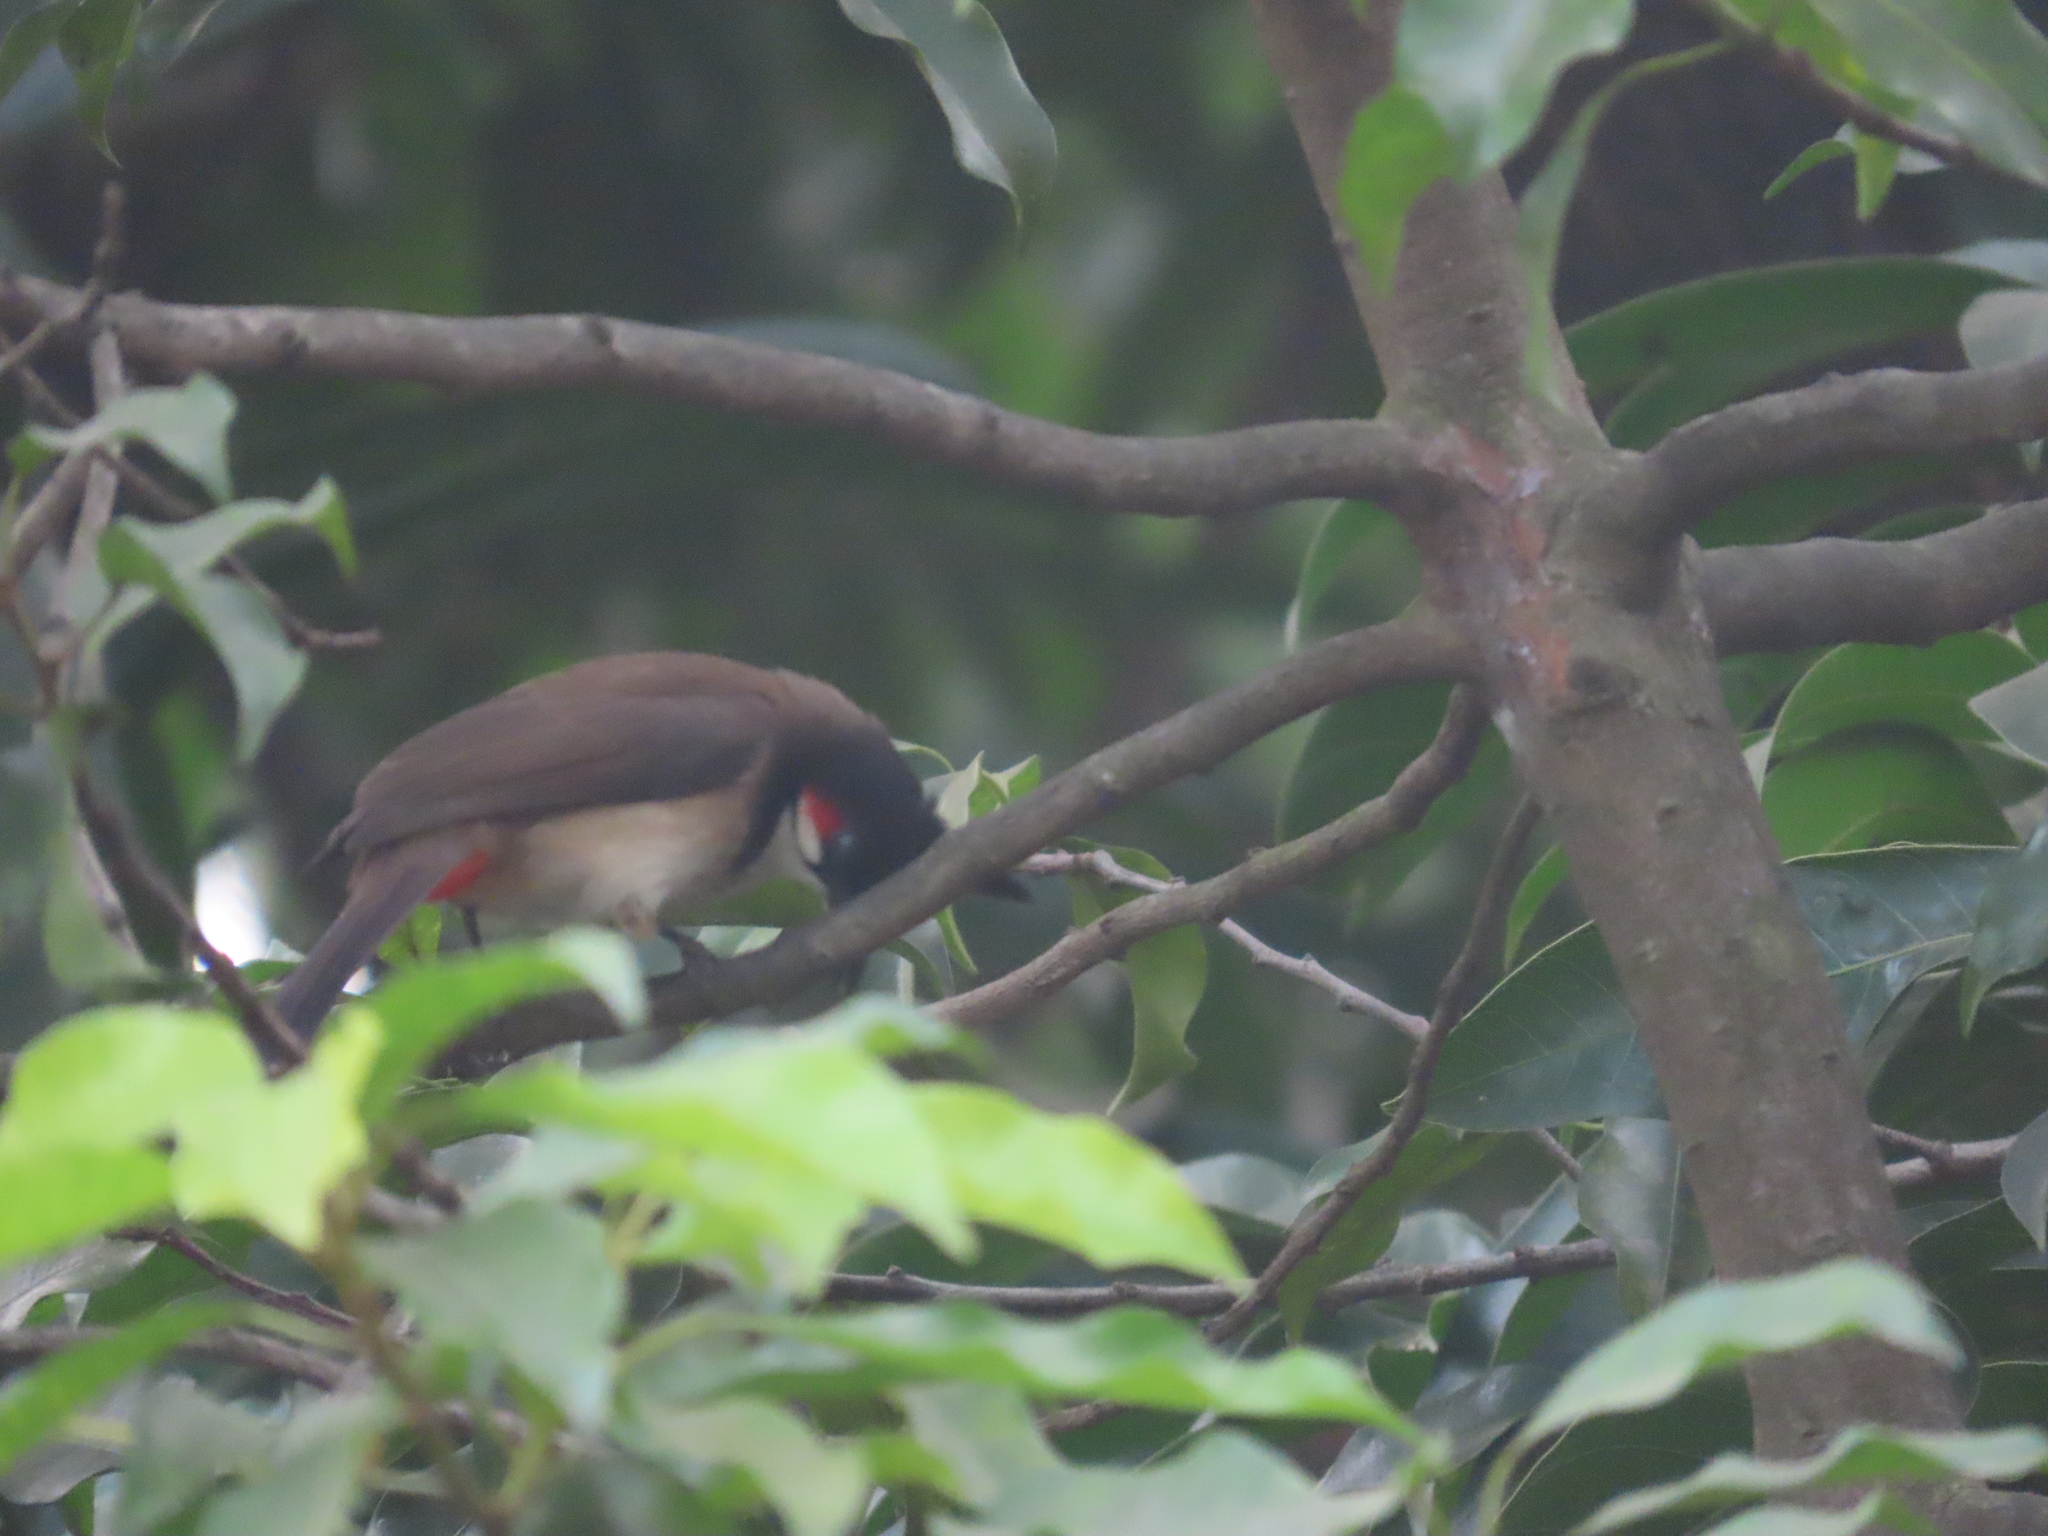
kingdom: Animalia
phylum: Chordata
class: Aves
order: Passeriformes
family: Pycnonotidae
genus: Pycnonotus
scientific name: Pycnonotus jocosus
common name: Red-whiskered bulbul
